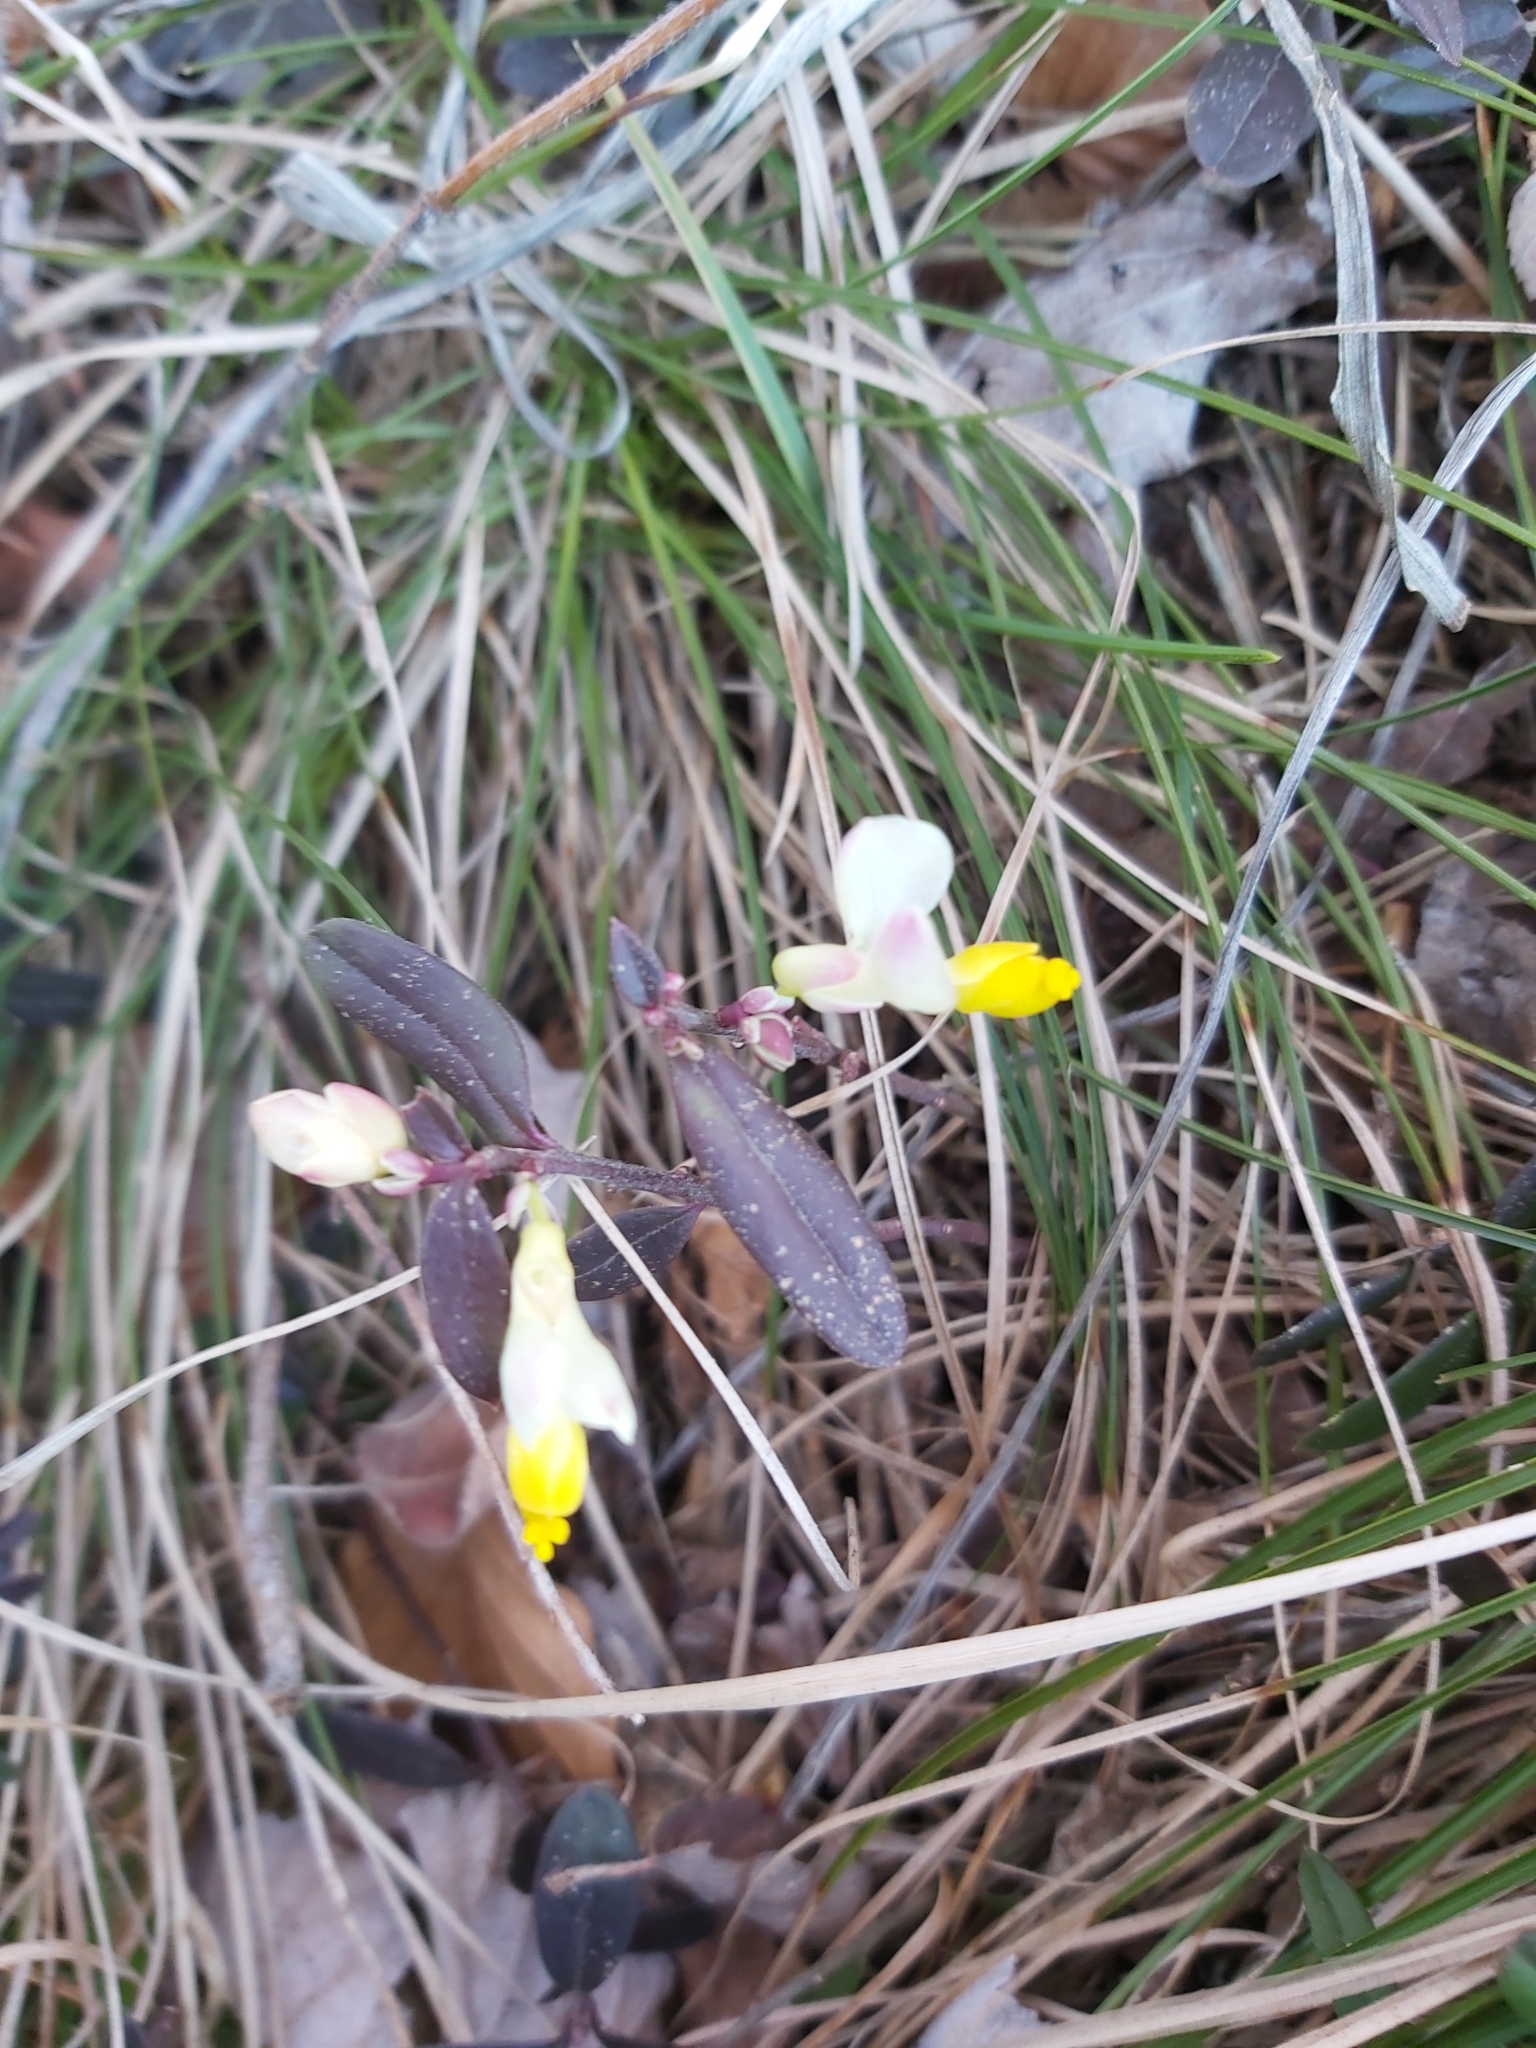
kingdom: Plantae
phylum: Tracheophyta
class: Magnoliopsida
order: Fabales
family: Polygalaceae
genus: Polygaloides
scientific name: Polygaloides chamaebuxus
